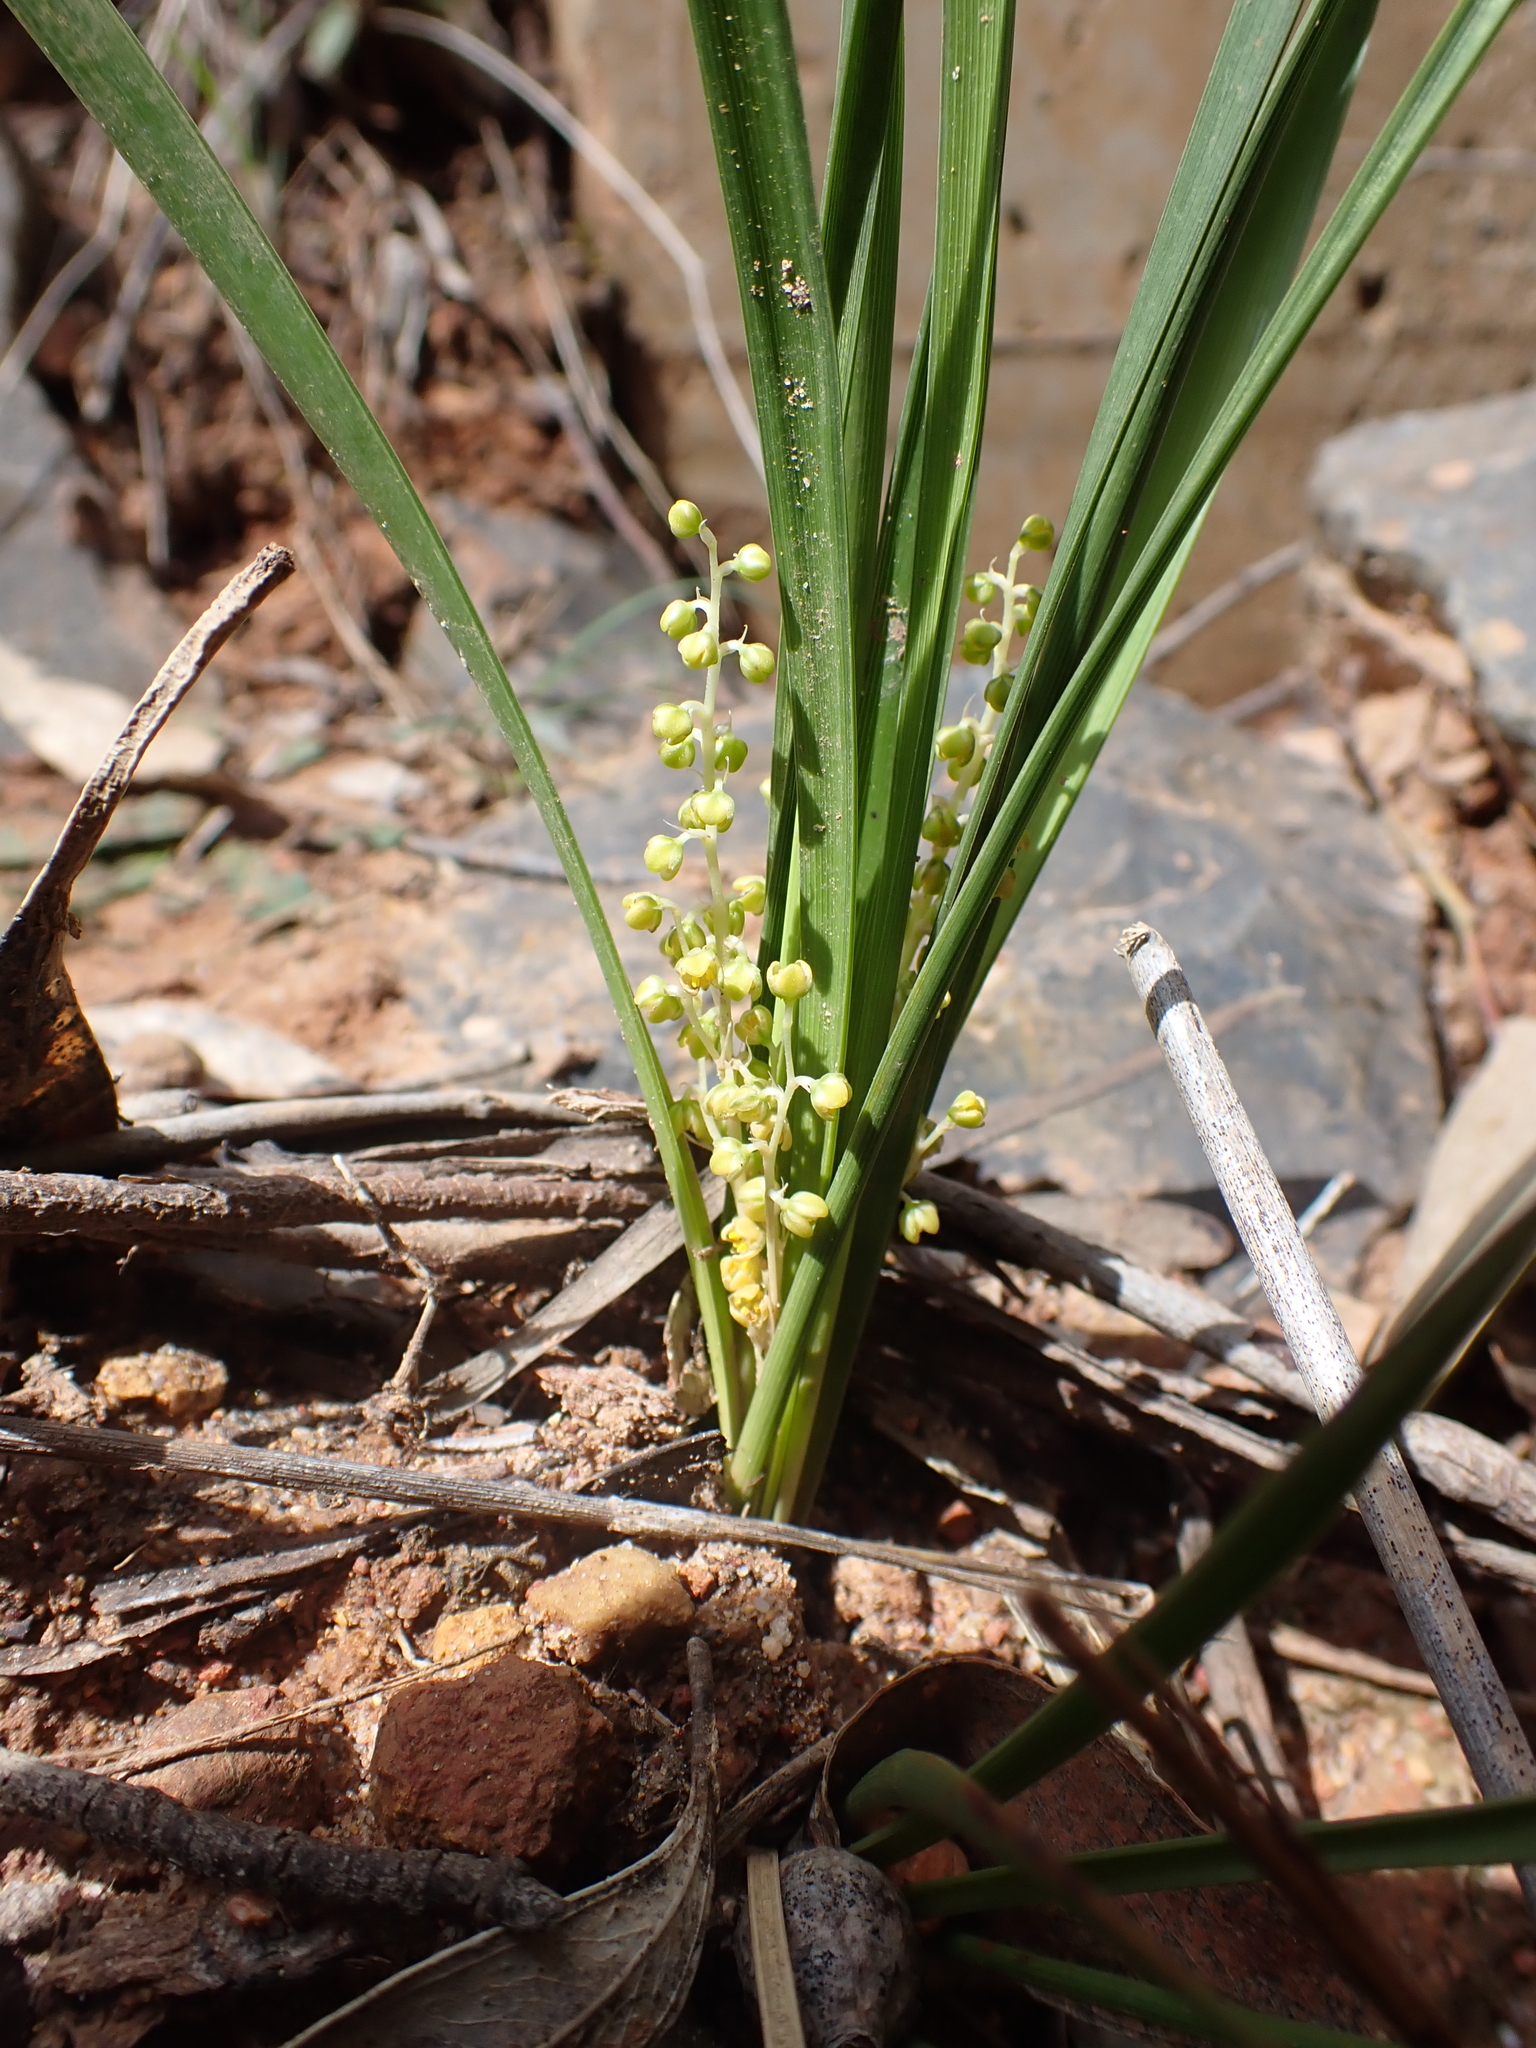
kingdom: Plantae
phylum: Tracheophyta
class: Liliopsida
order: Asparagales
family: Asparagaceae
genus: Lomandra
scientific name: Lomandra filiformis
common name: Wattle mat-rush
